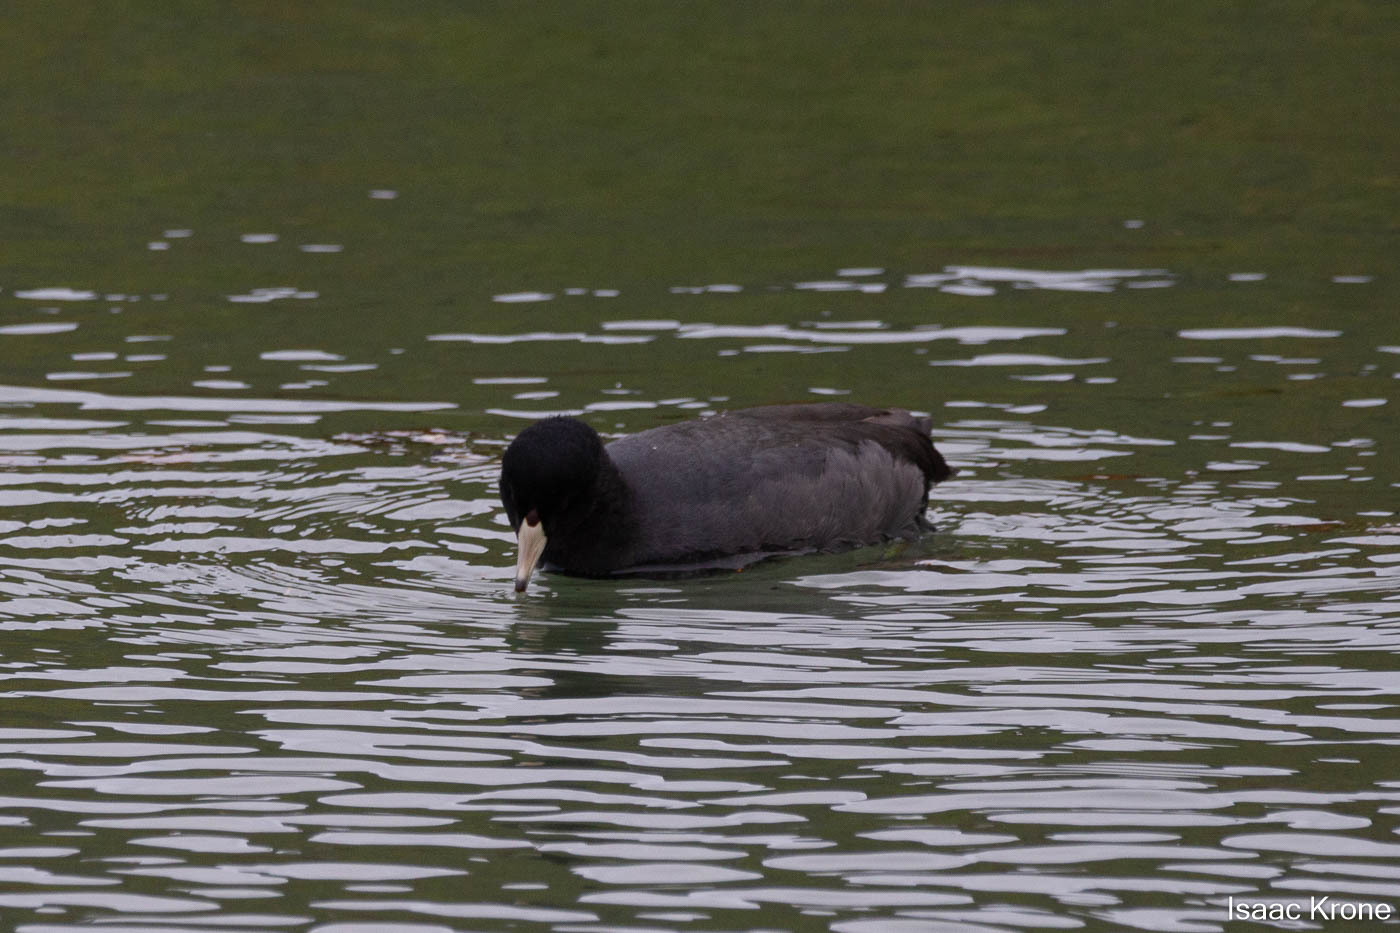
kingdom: Animalia
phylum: Chordata
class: Aves
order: Gruiformes
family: Rallidae
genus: Fulica
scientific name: Fulica americana
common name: American coot
